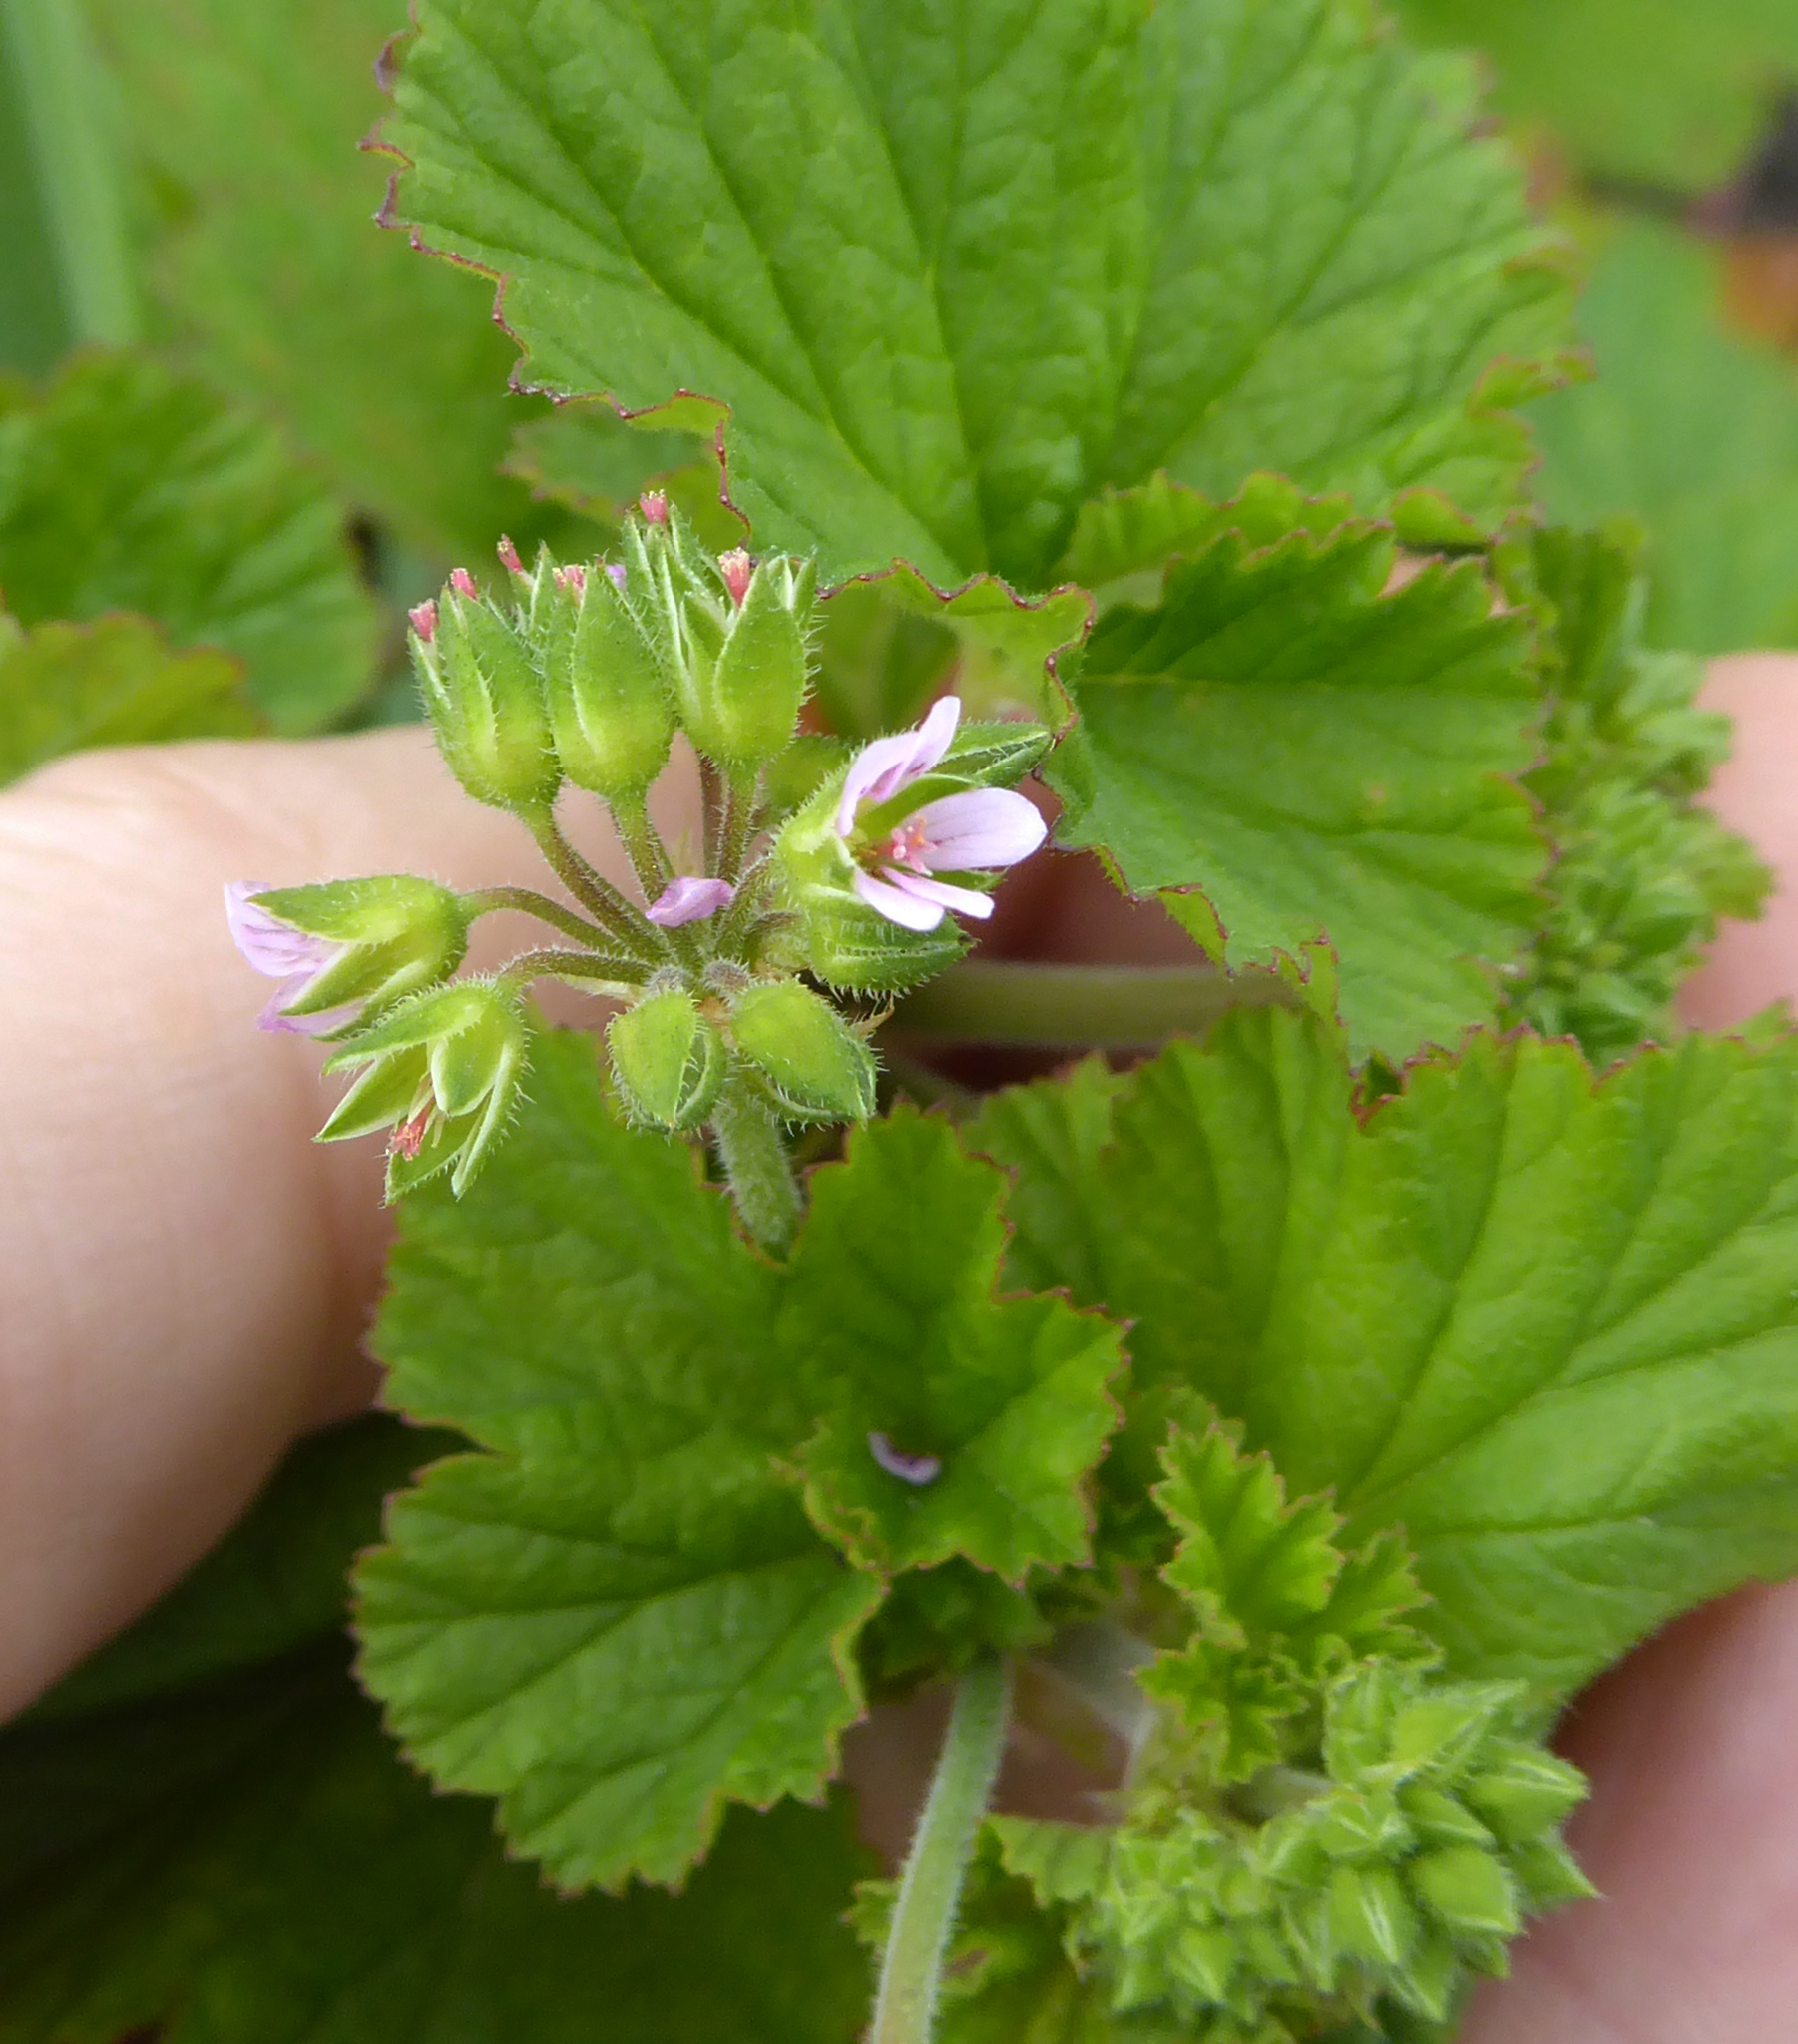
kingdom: Plantae
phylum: Tracheophyta
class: Magnoliopsida
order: Geraniales
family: Geraniaceae
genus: Pelargonium
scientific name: Pelargonium inodorum
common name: Kopata geranium
